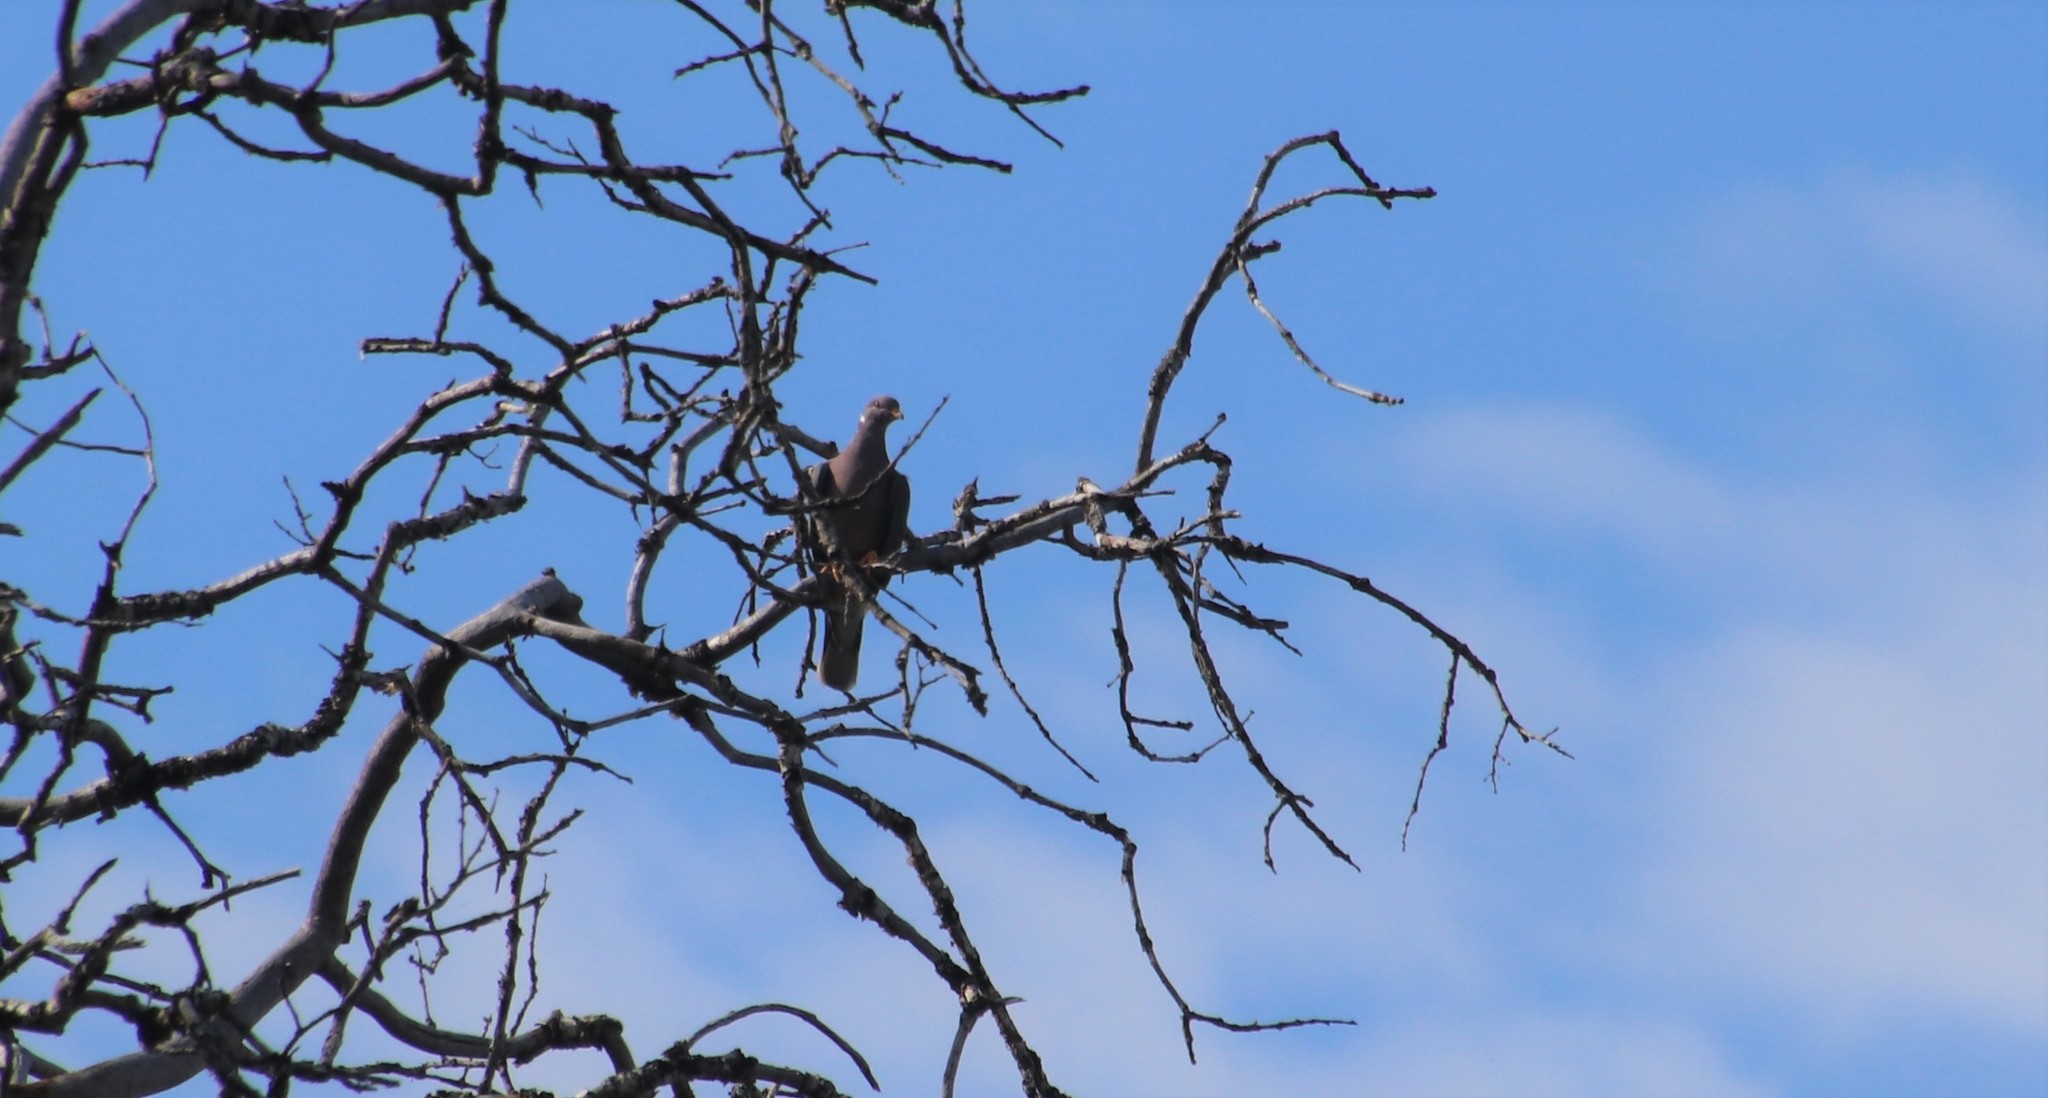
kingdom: Animalia
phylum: Chordata
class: Aves
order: Columbiformes
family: Columbidae
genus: Patagioenas
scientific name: Patagioenas fasciata
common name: Band-tailed pigeon
